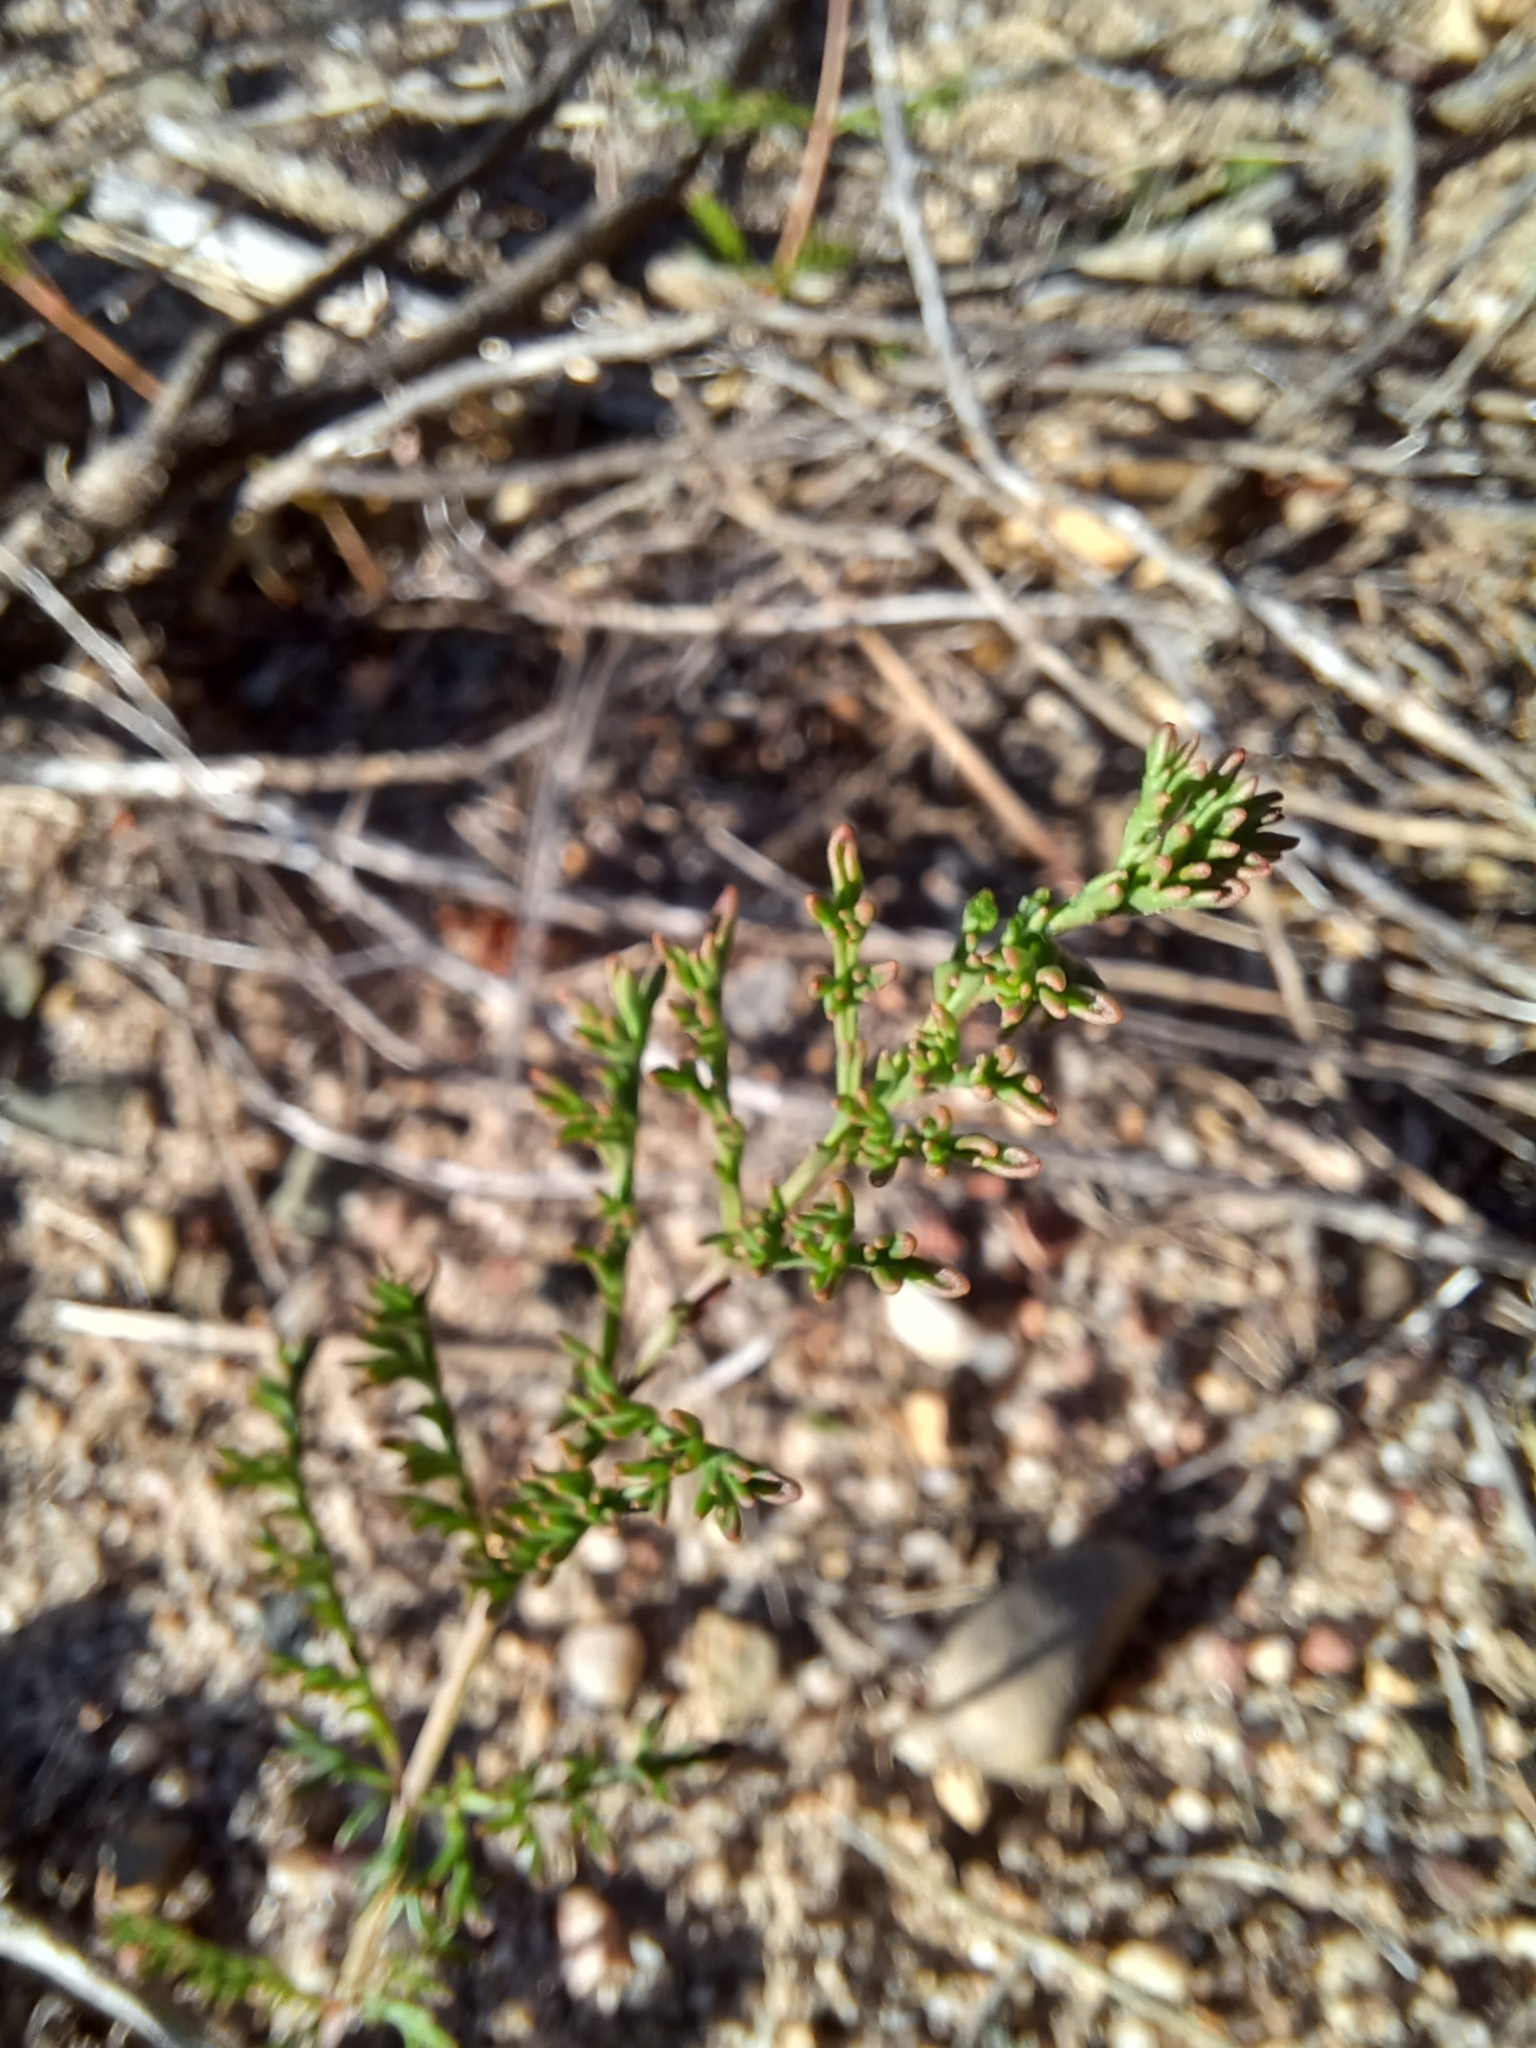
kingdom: Plantae
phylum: Tracheophyta
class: Magnoliopsida
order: Geraniales
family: Geraniaceae
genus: Pelargonium
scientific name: Pelargonium multiradiatum
